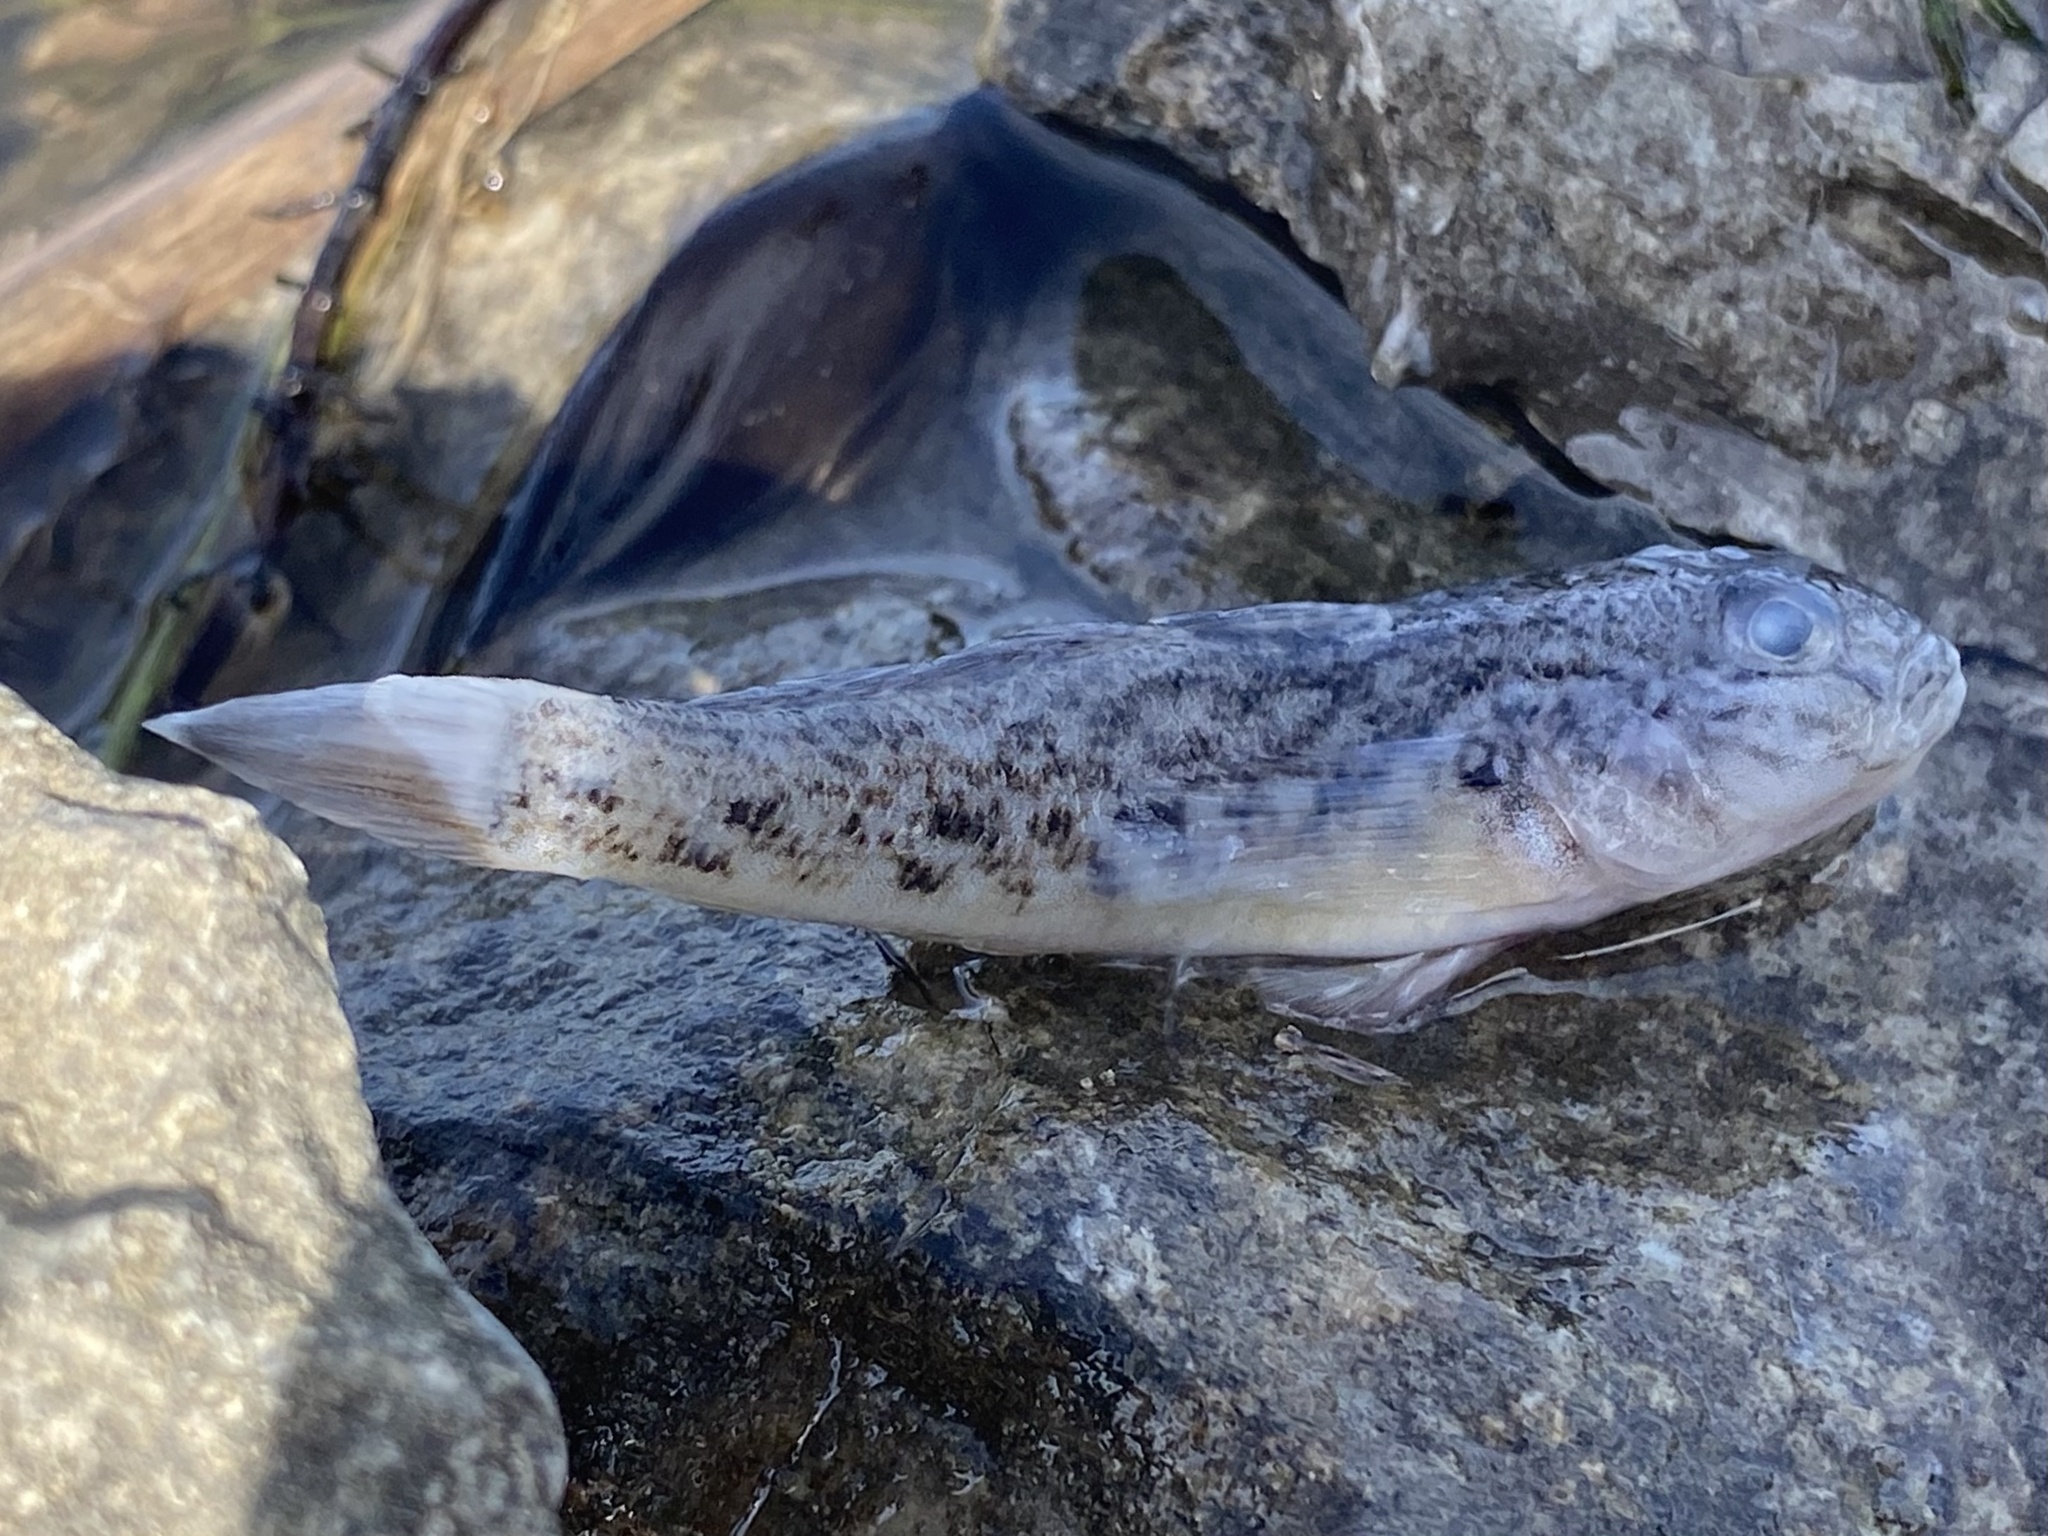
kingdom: Animalia
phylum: Chordata
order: Perciformes
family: Gobiidae
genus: Neogobius
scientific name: Neogobius melanostomus
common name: Round goby
